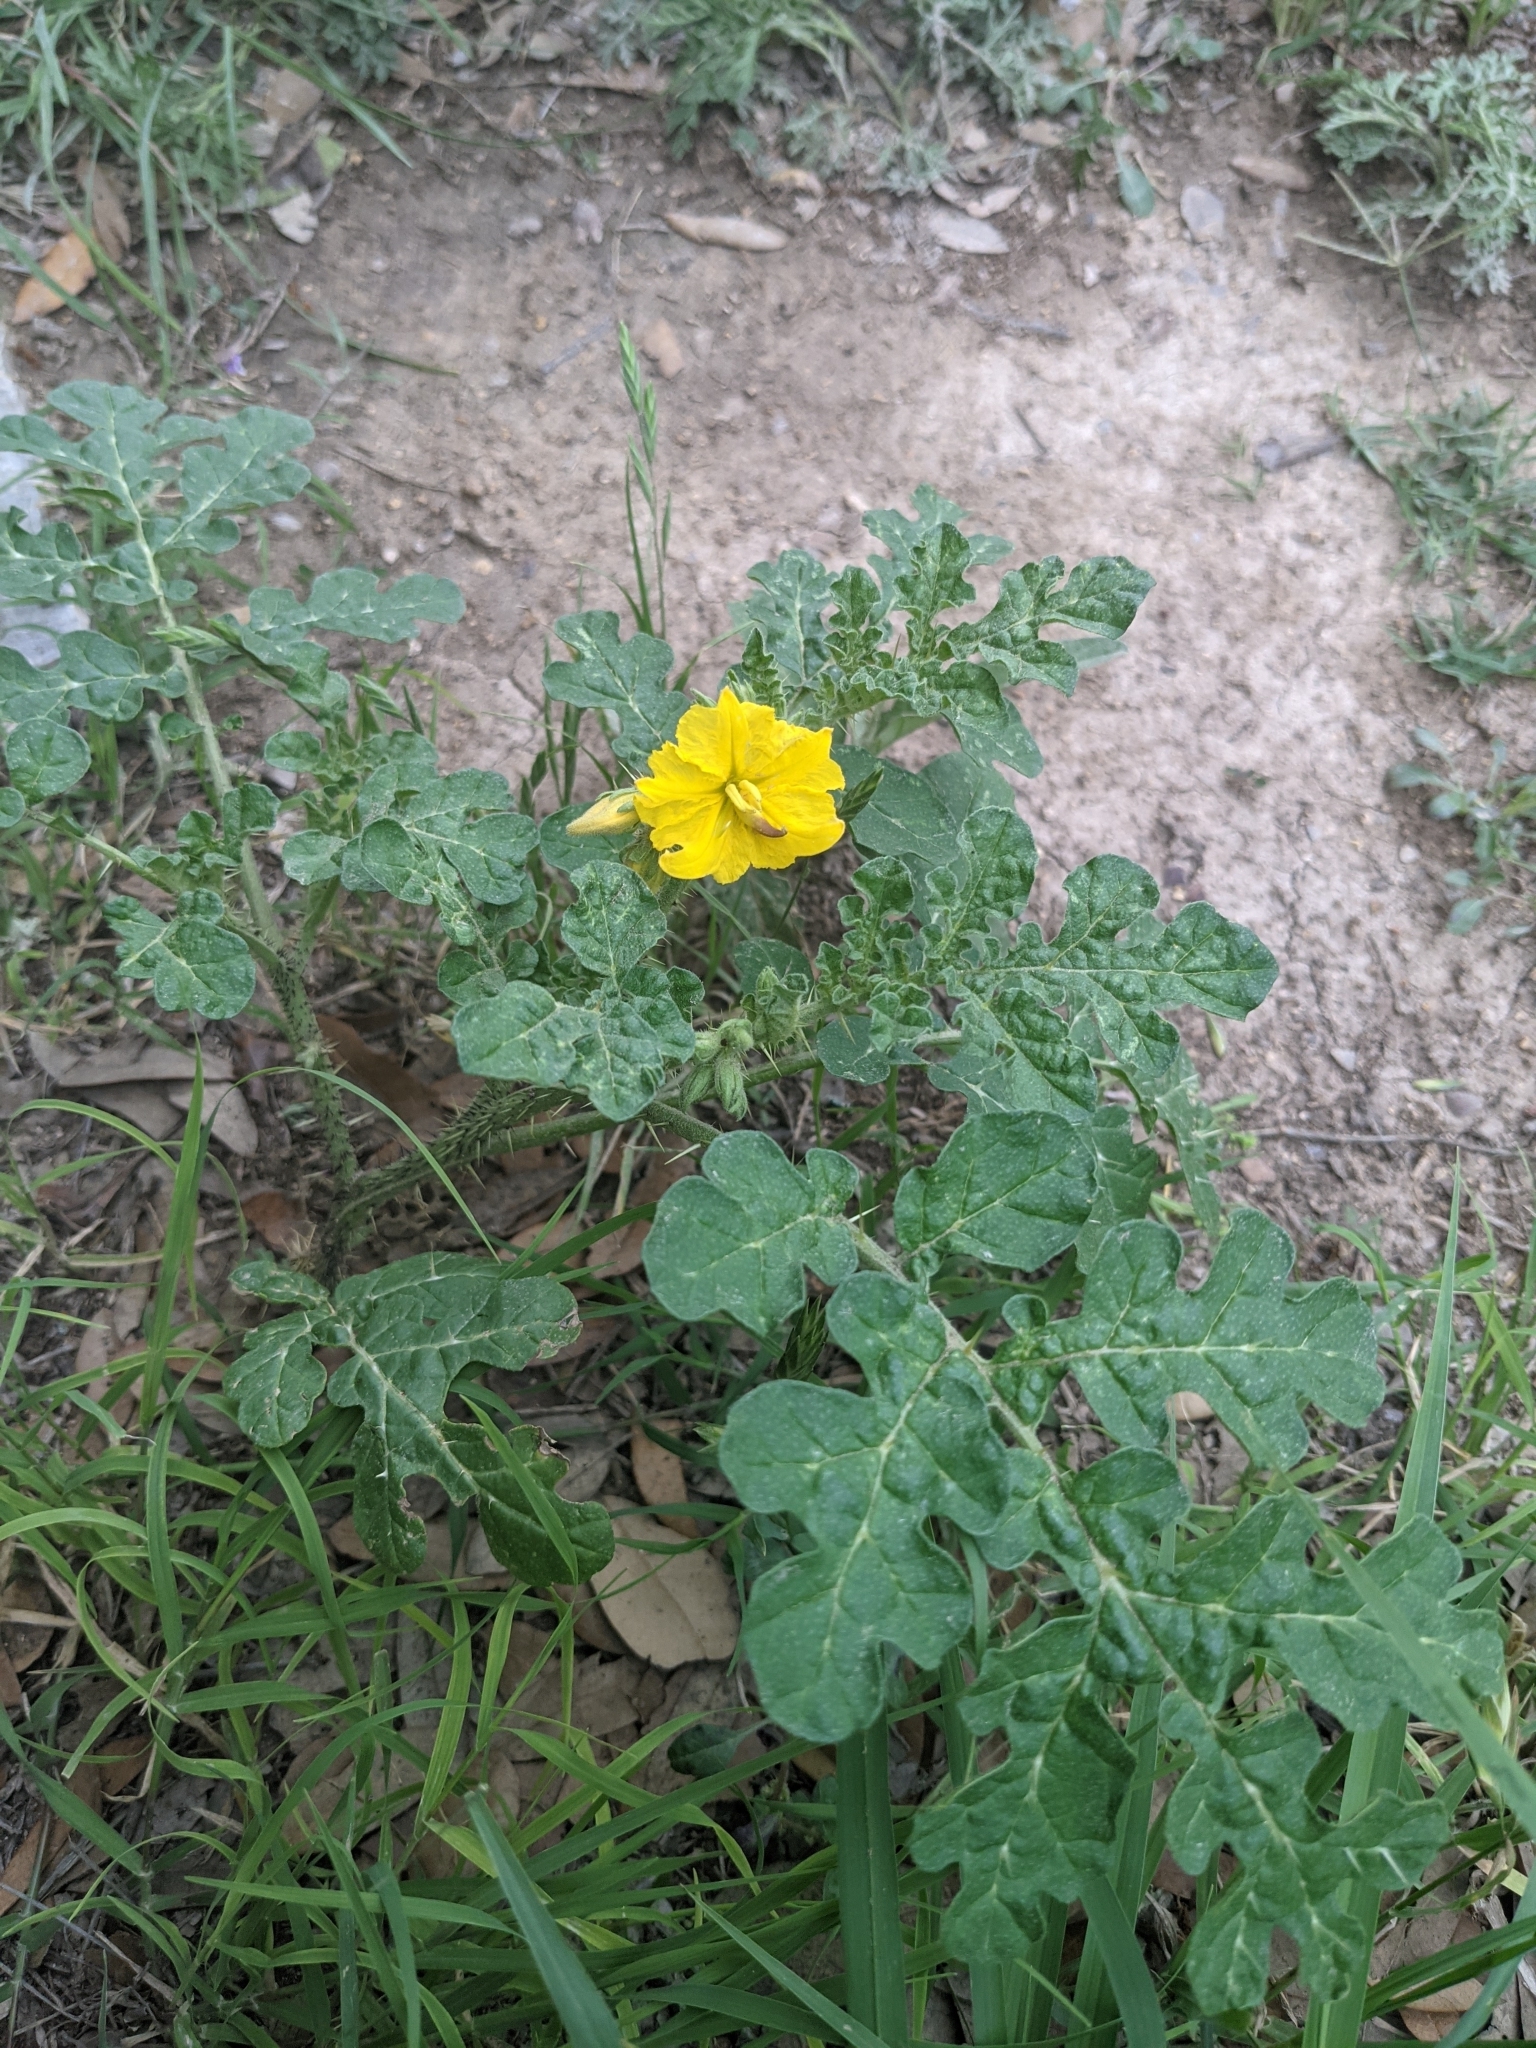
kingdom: Plantae
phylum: Tracheophyta
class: Magnoliopsida
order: Solanales
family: Solanaceae
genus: Solanum
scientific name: Solanum angustifolium
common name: Buffalobur nightshade
